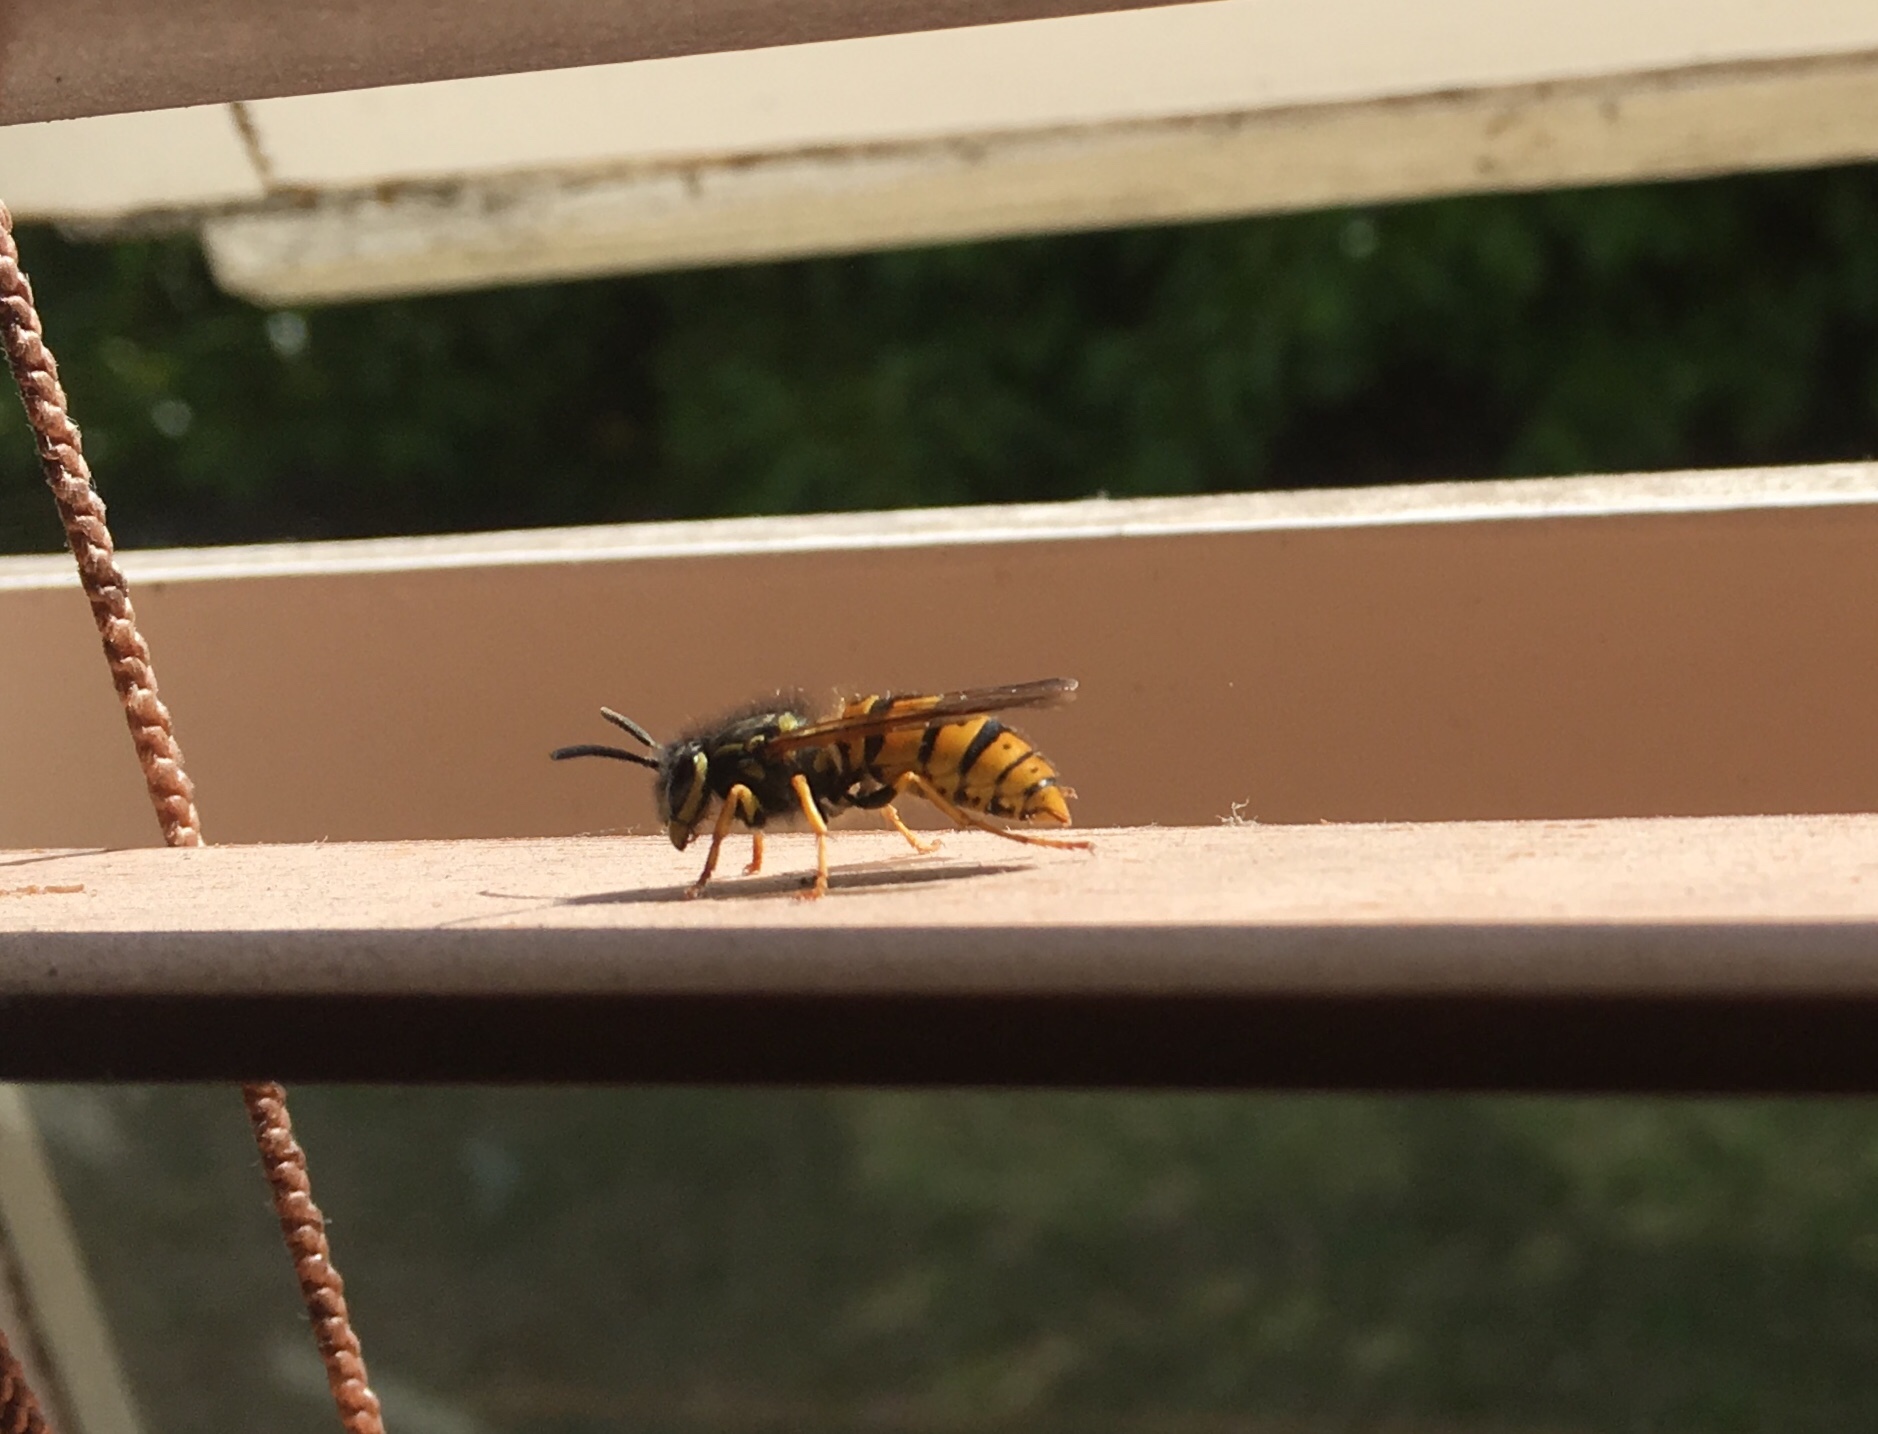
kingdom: Animalia
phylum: Arthropoda
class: Insecta
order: Hymenoptera
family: Vespidae
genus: Vespula
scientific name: Vespula germanica
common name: German wasp
